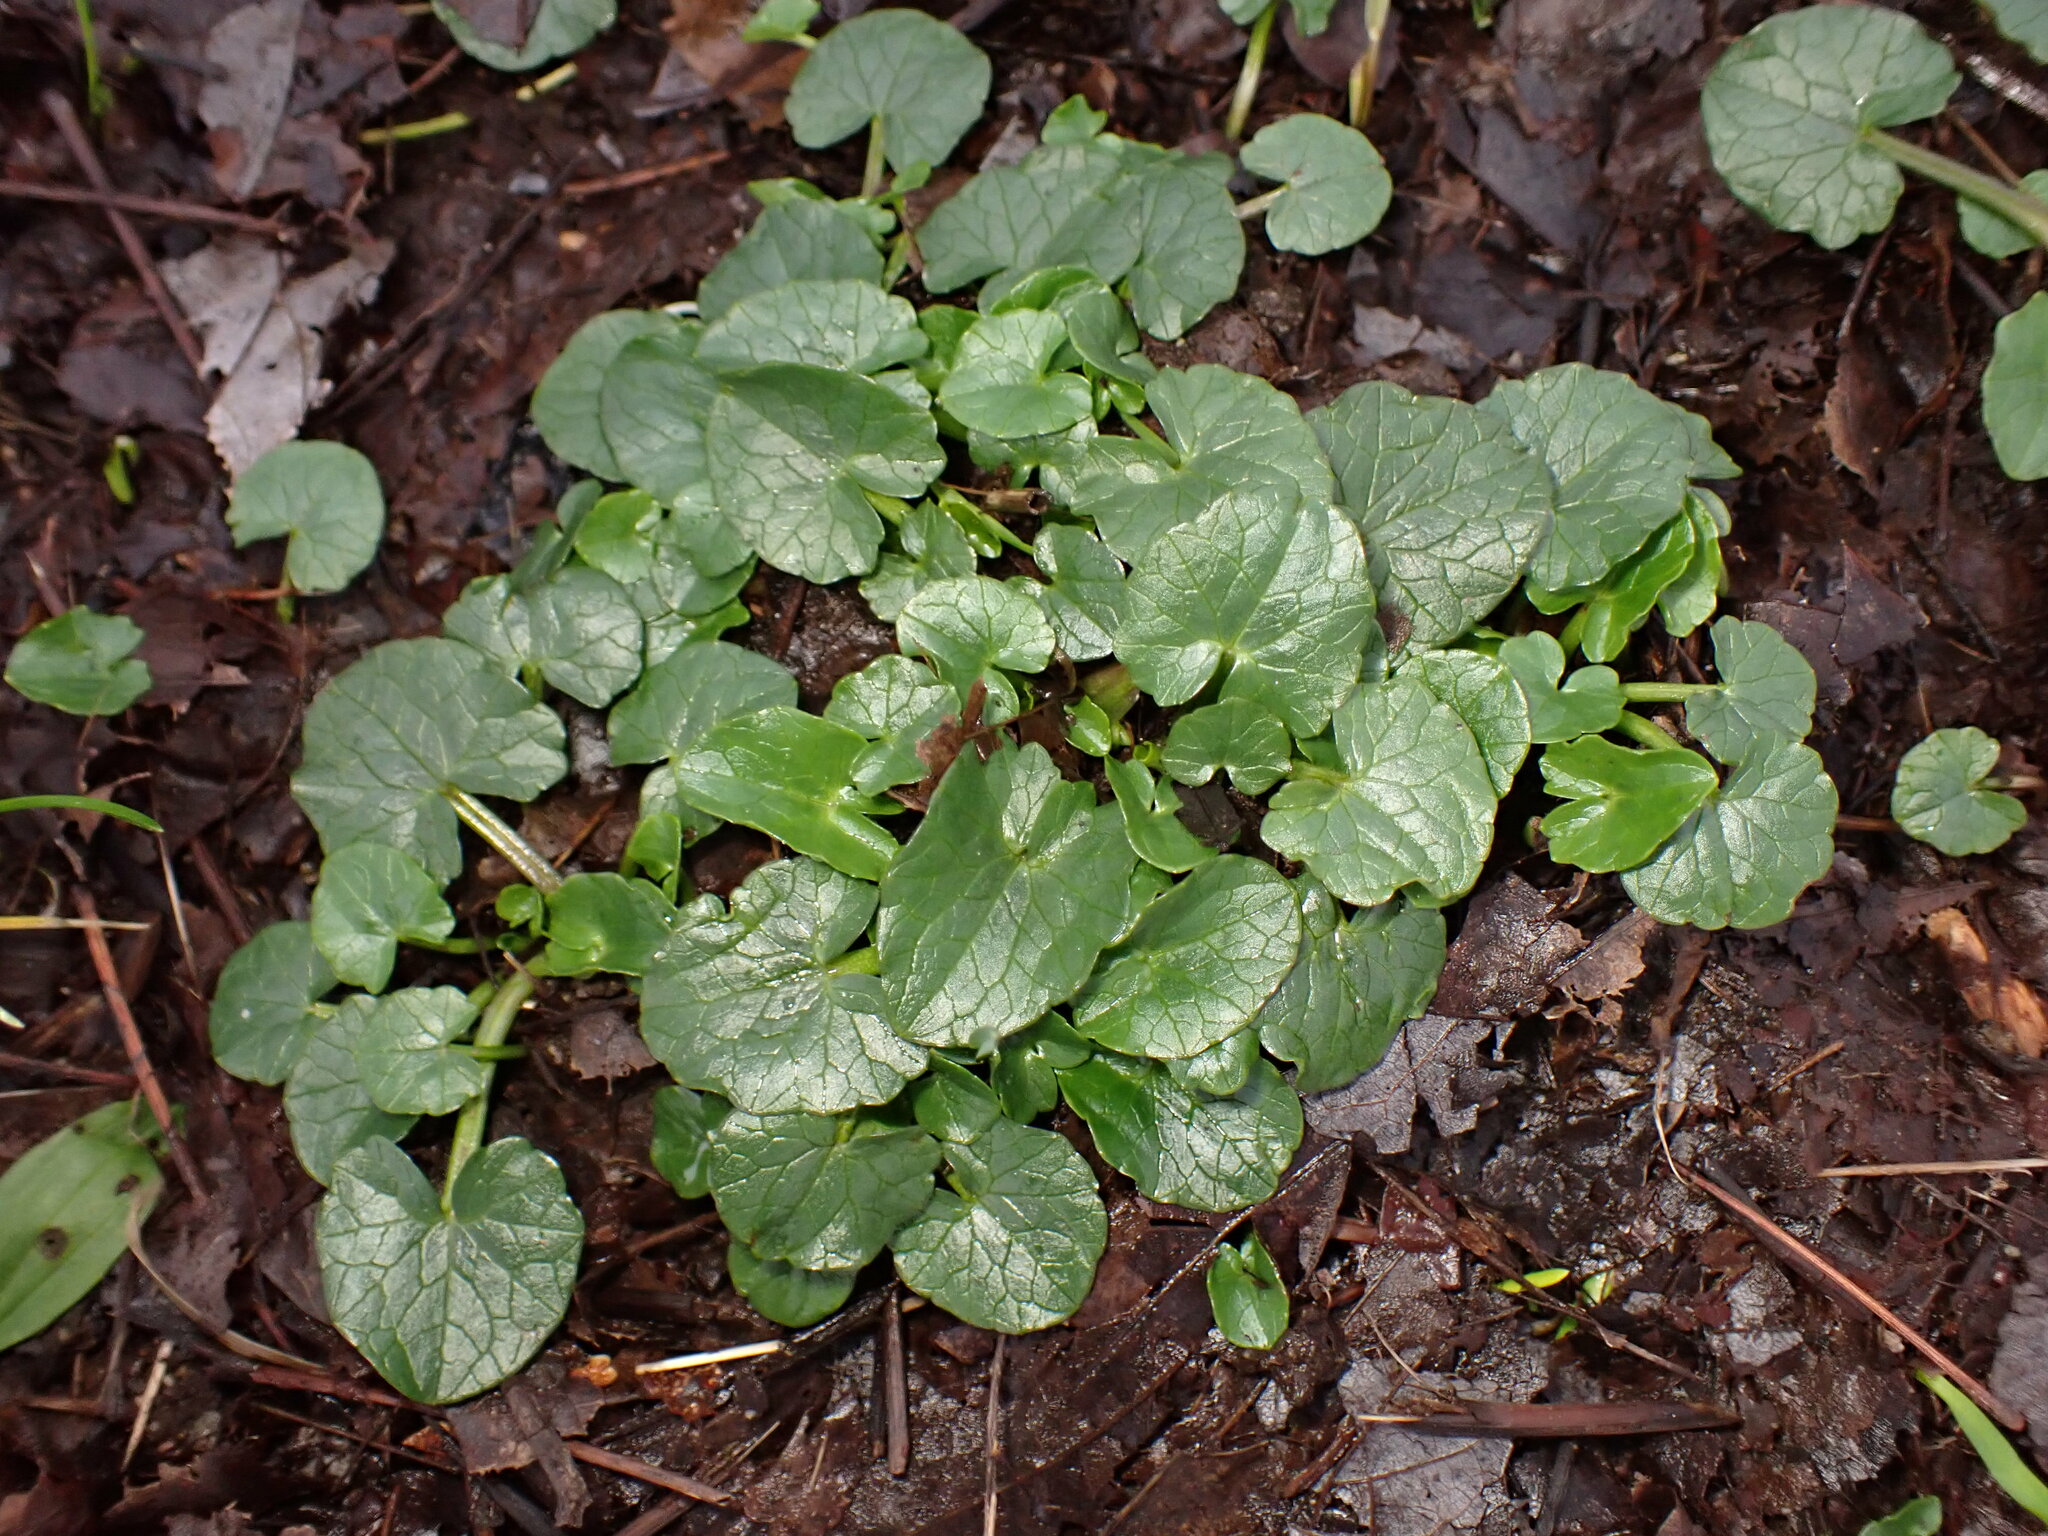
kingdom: Plantae
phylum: Tracheophyta
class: Magnoliopsida
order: Ranunculales
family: Ranunculaceae
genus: Ficaria
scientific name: Ficaria verna
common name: Lesser celandine
